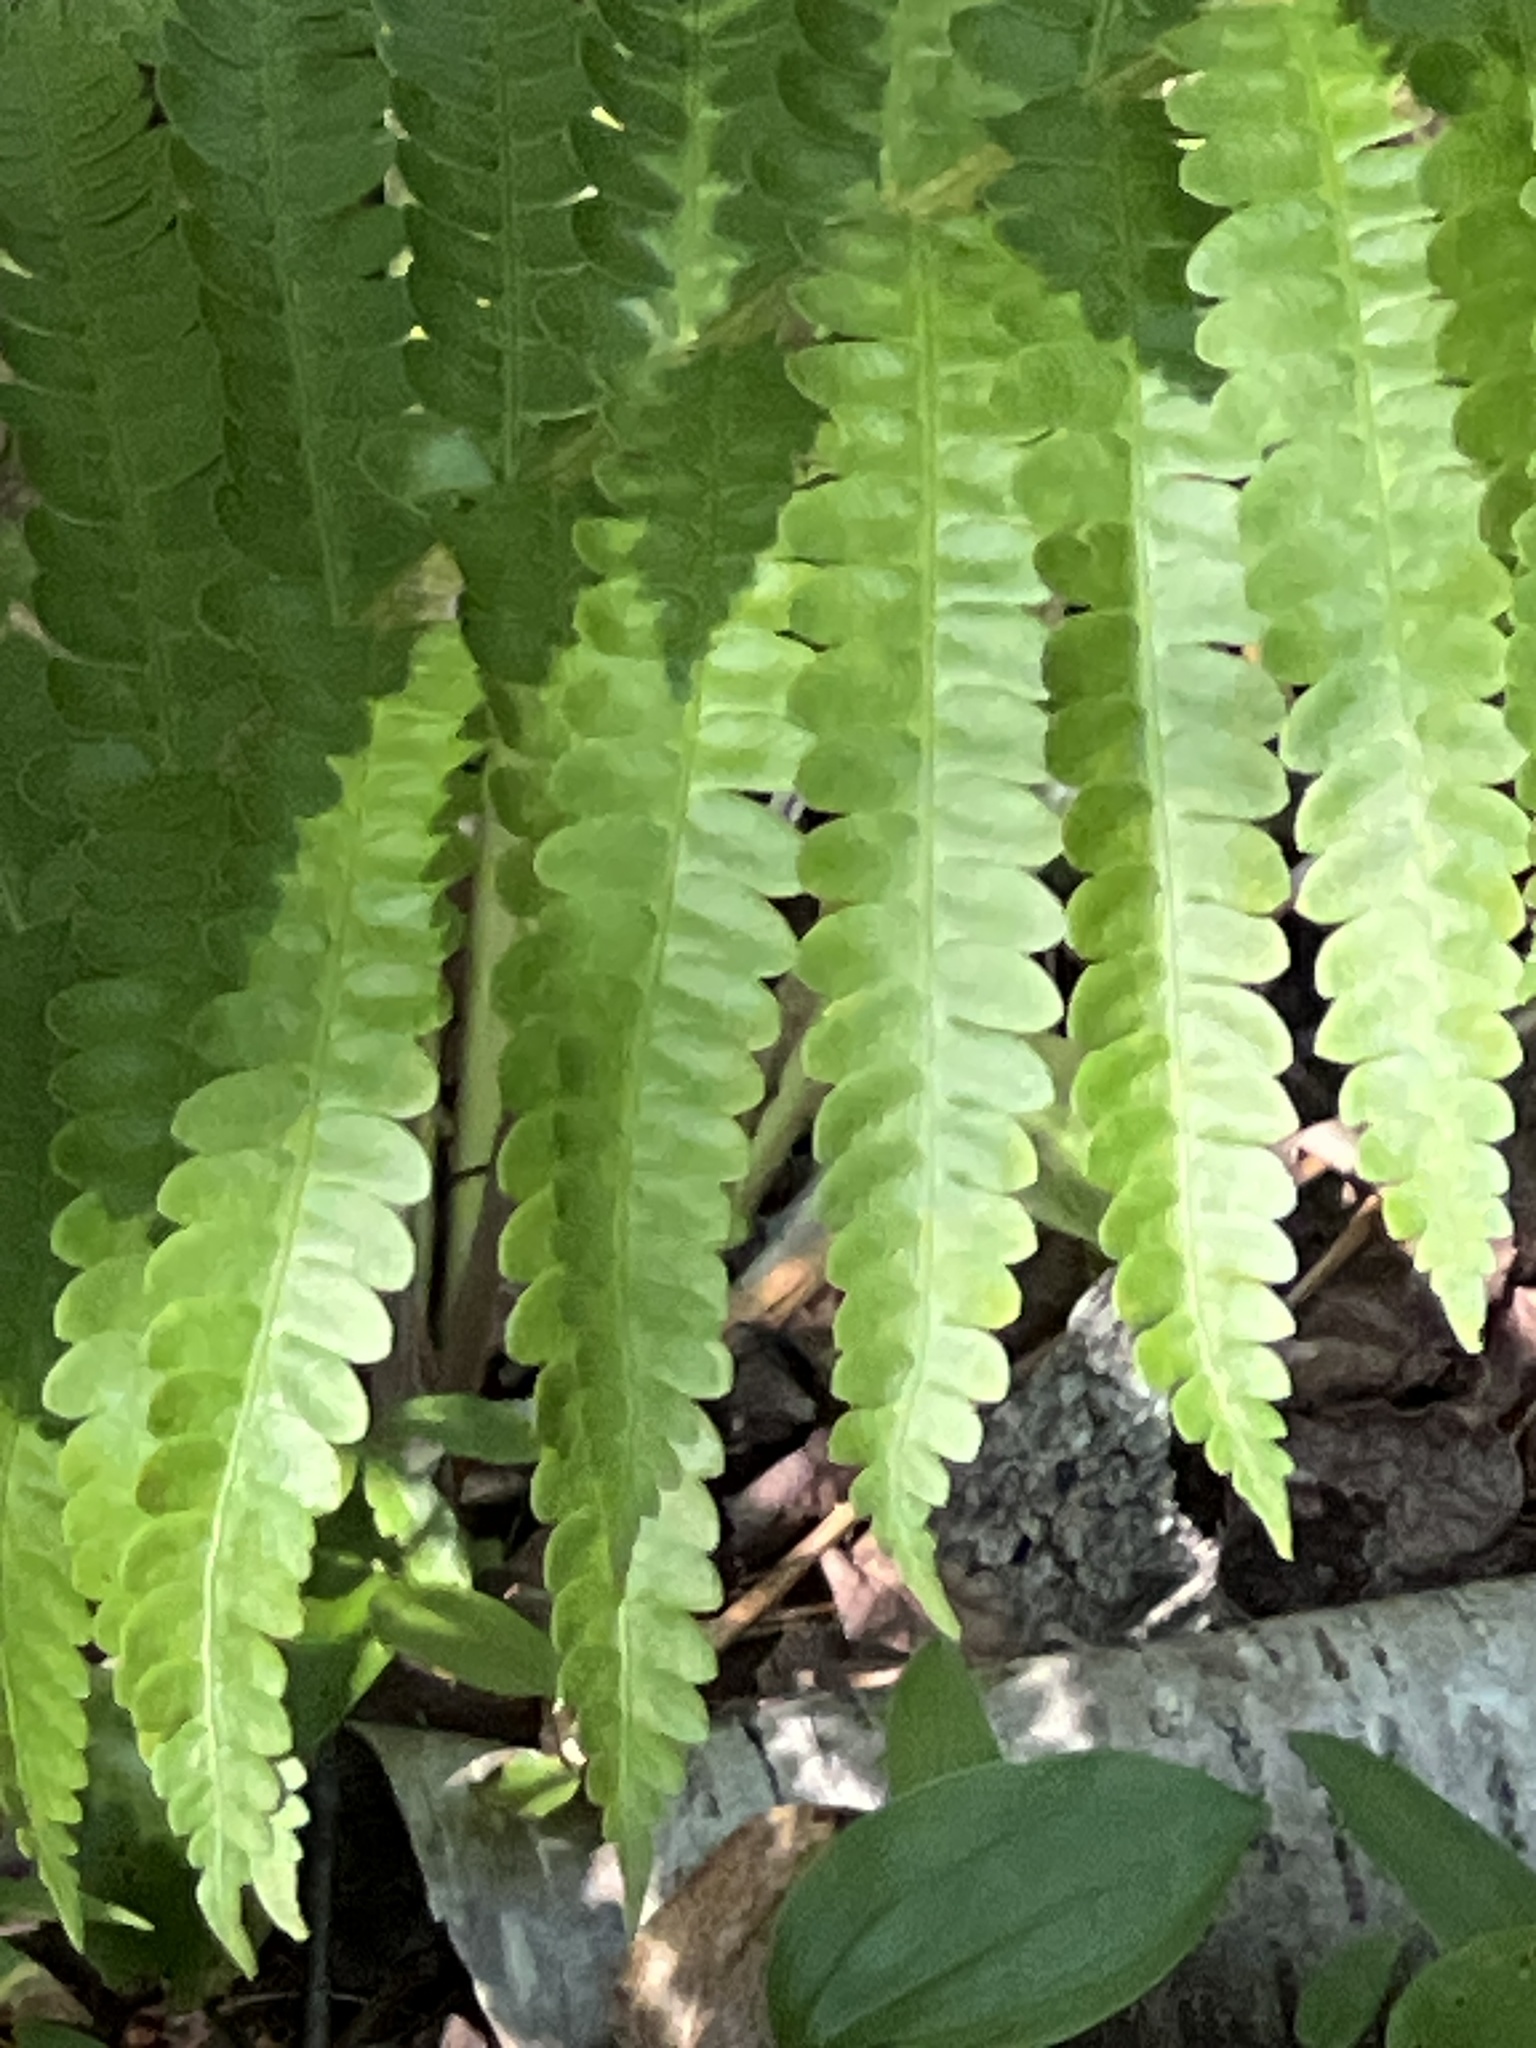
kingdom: Plantae
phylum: Tracheophyta
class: Polypodiopsida
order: Osmundales
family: Osmundaceae
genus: Osmundastrum
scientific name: Osmundastrum cinnamomeum
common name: Cinnamon fern
